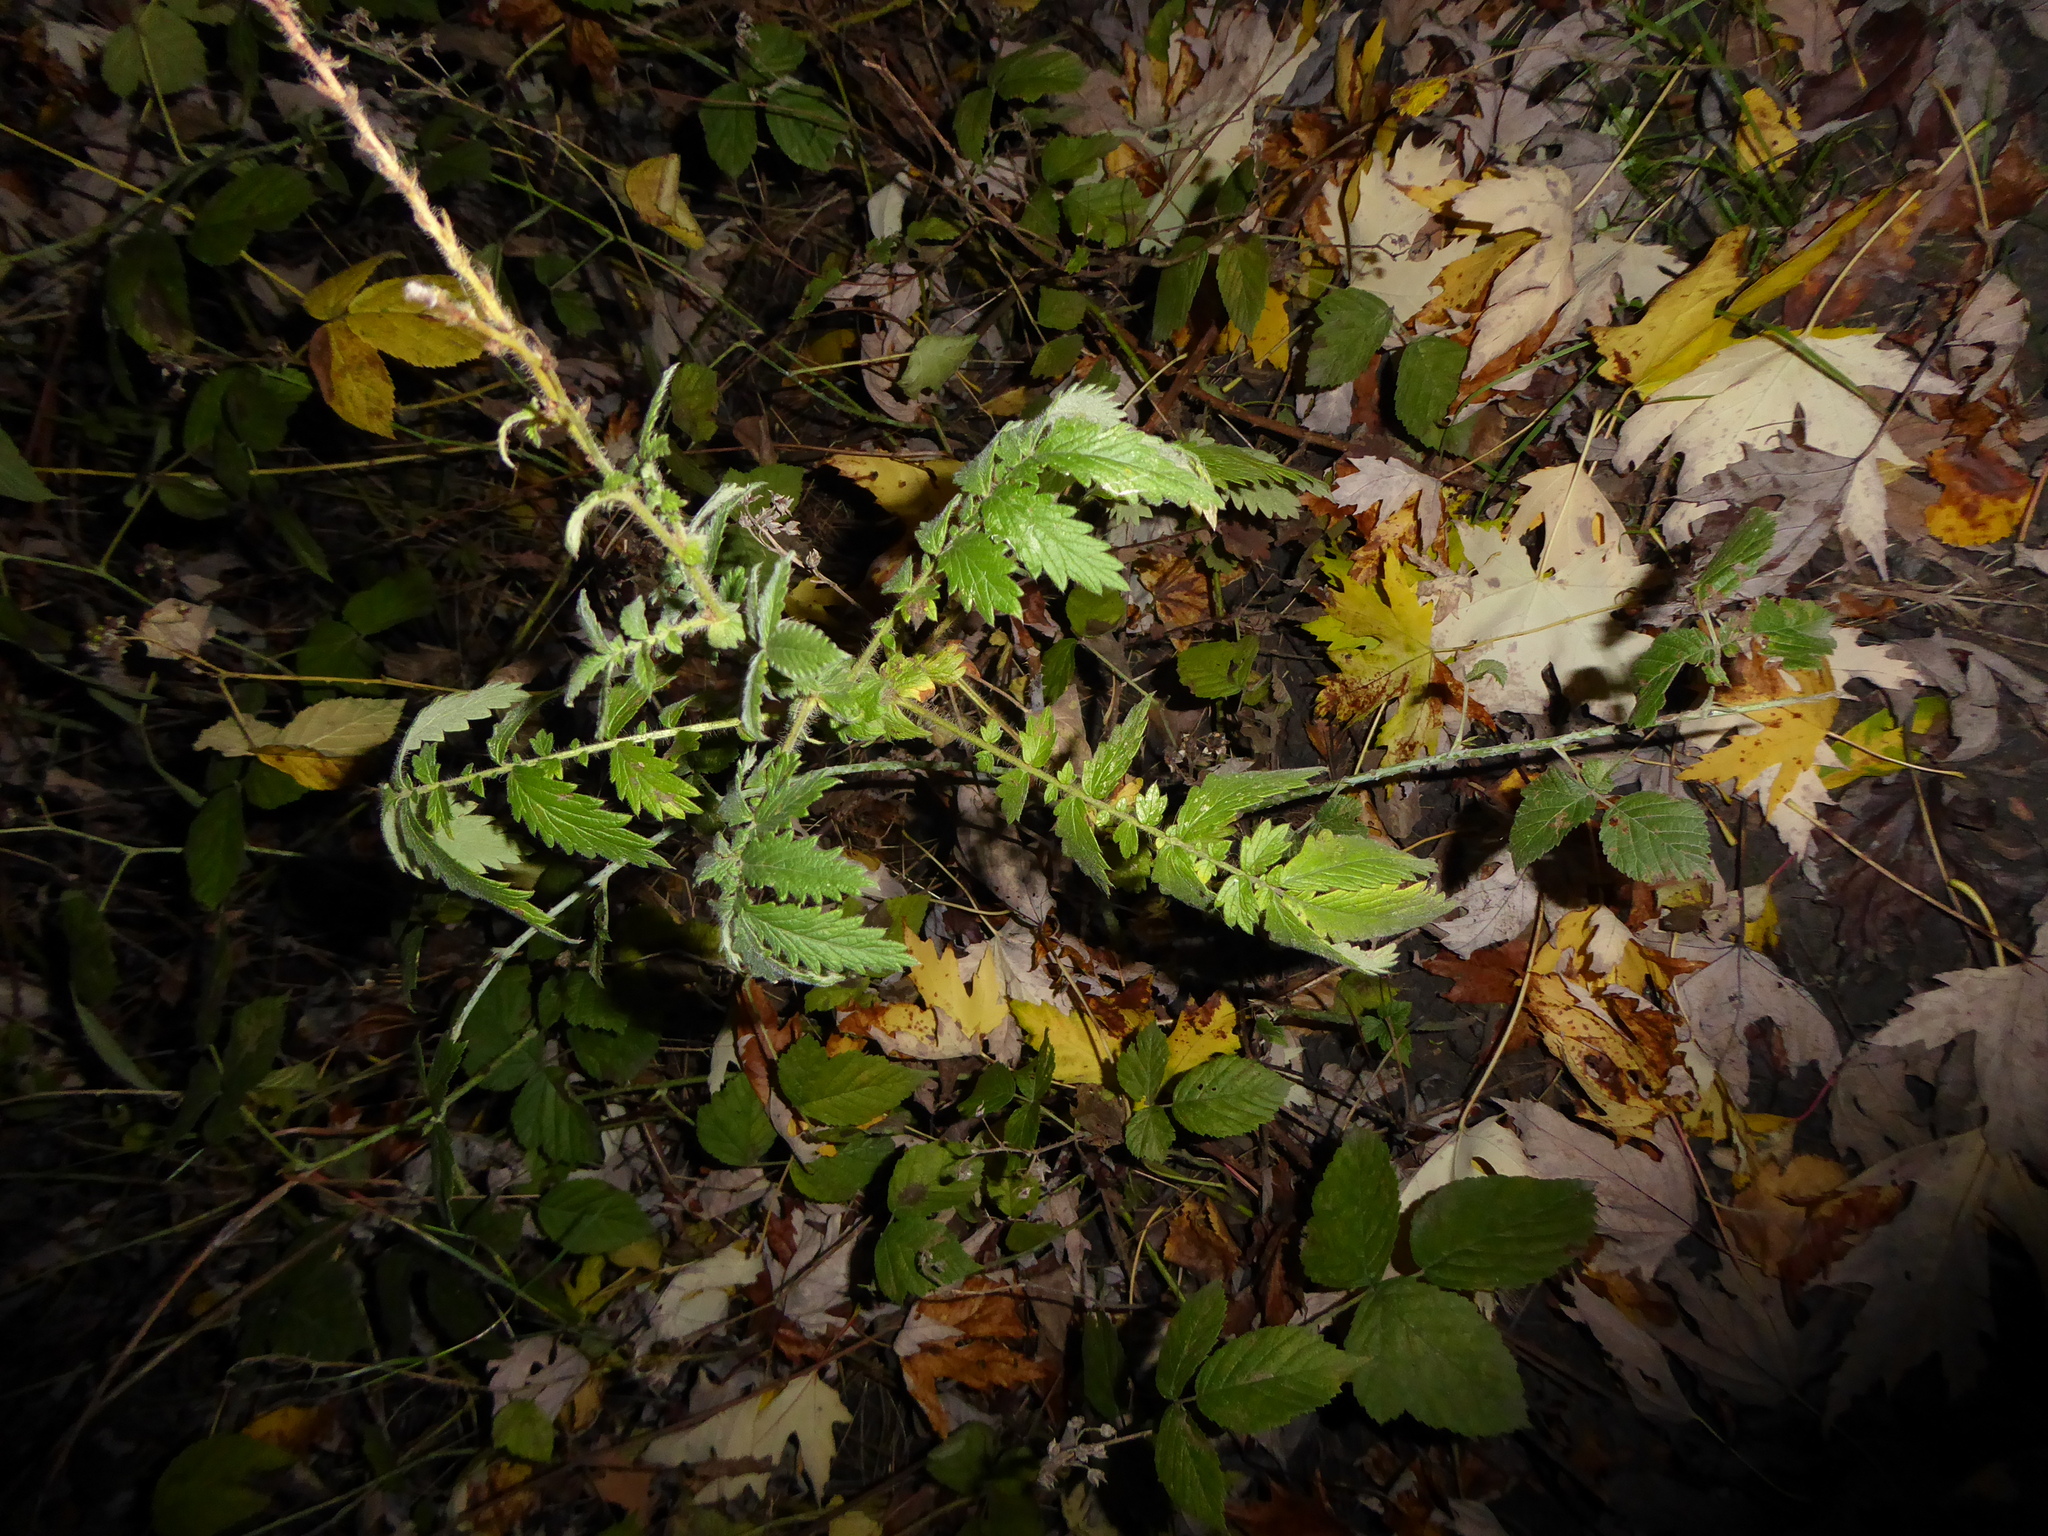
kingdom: Plantae
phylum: Tracheophyta
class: Magnoliopsida
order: Rosales
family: Rosaceae
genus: Agrimonia
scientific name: Agrimonia eupatoria
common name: Agrimony
